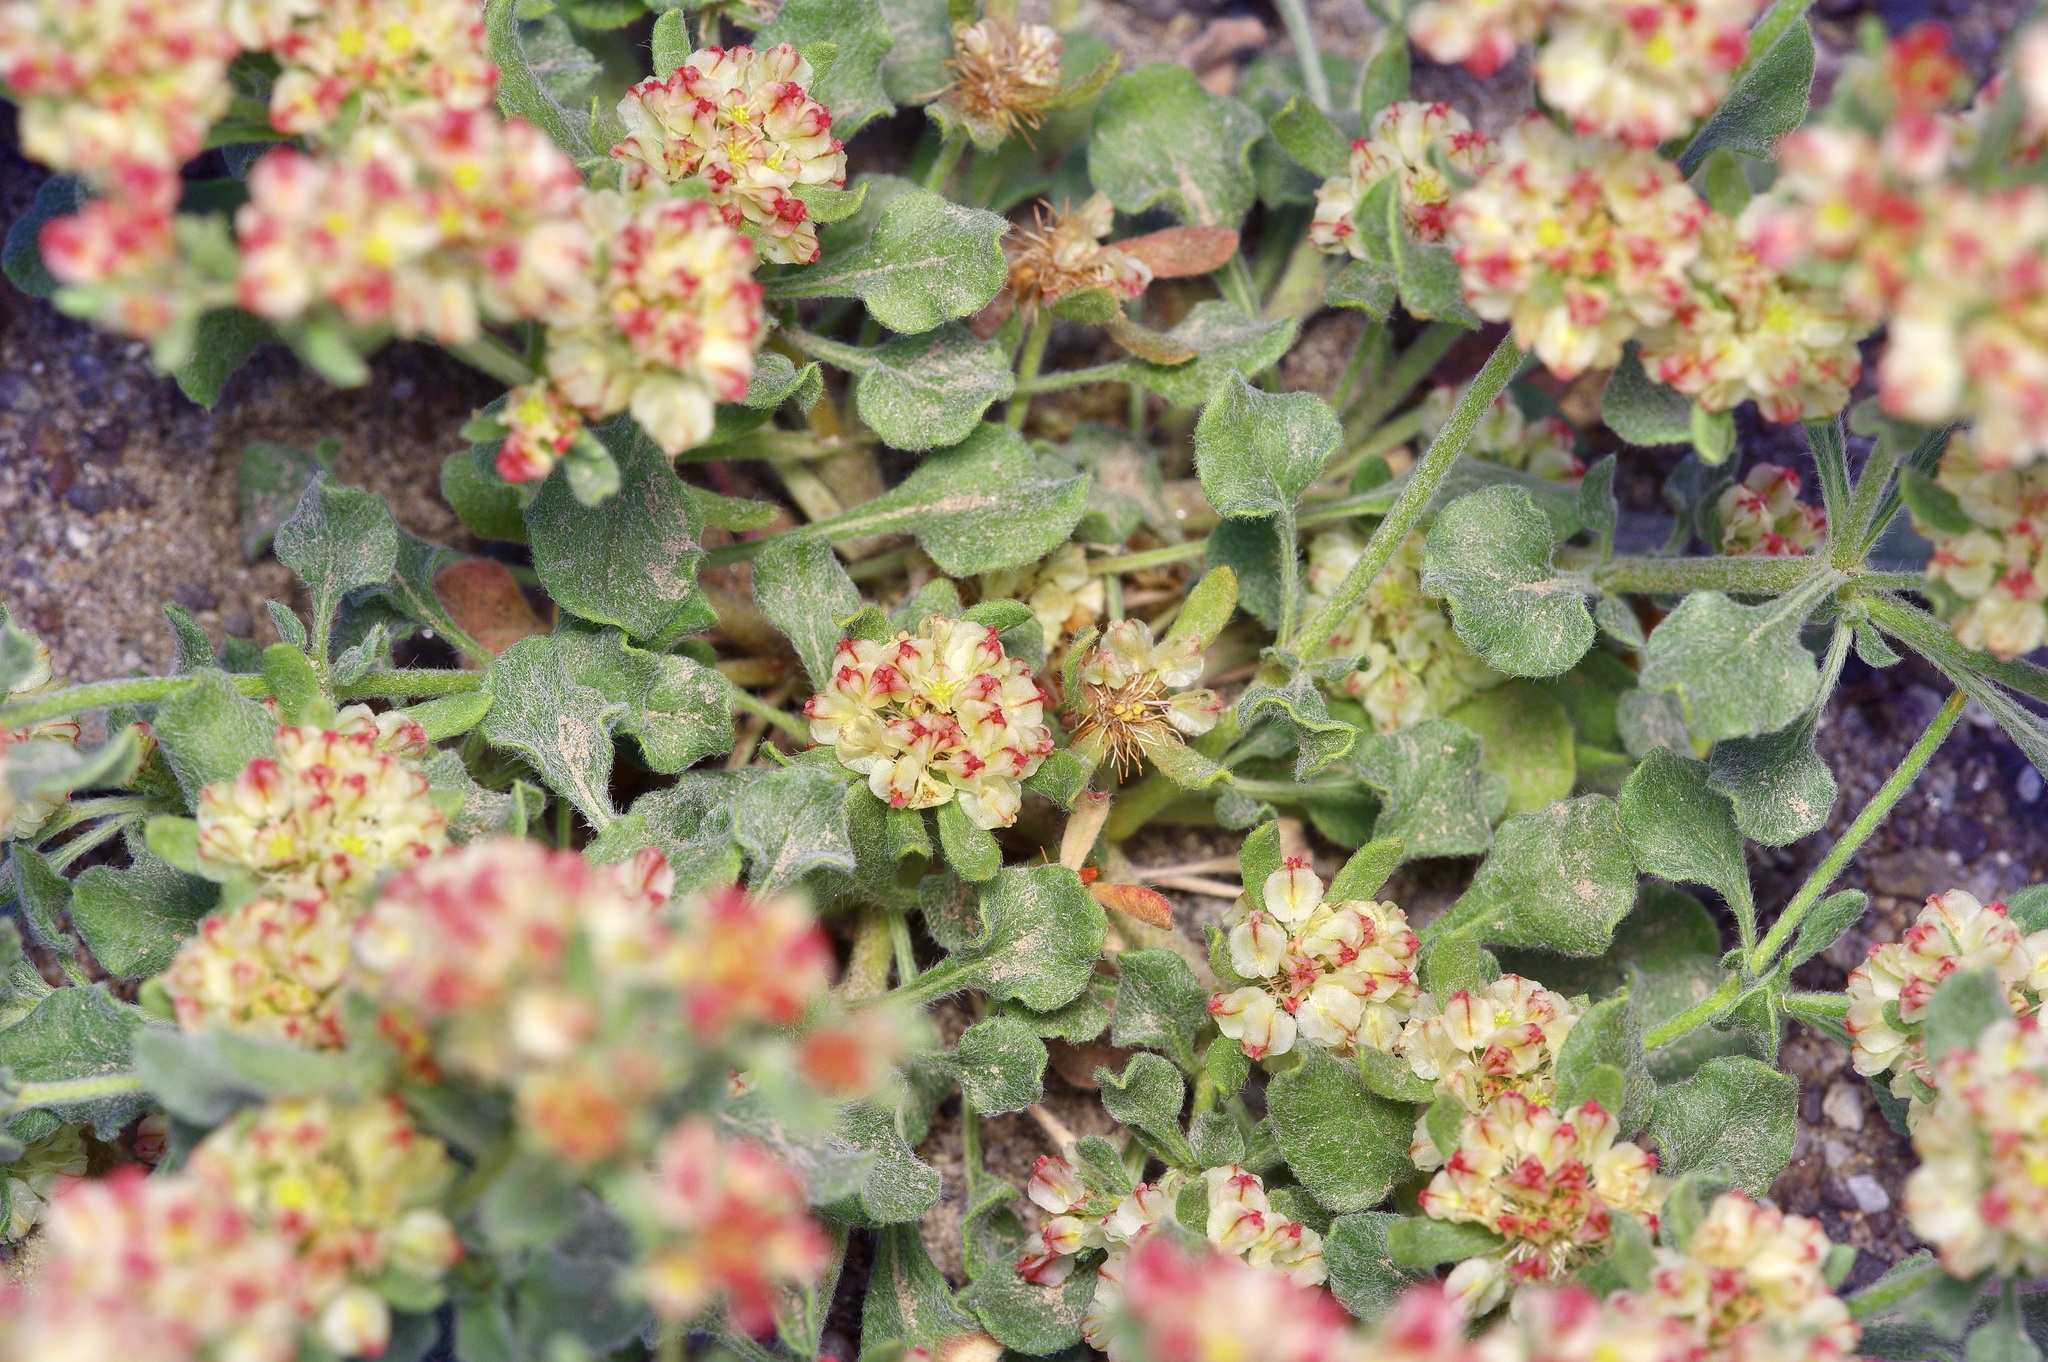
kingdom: Plantae
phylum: Tracheophyta
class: Magnoliopsida
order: Caryophyllales
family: Polygonaceae
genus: Eriogonum
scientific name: Eriogonum abertianum
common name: Abert's wild buckwheat
